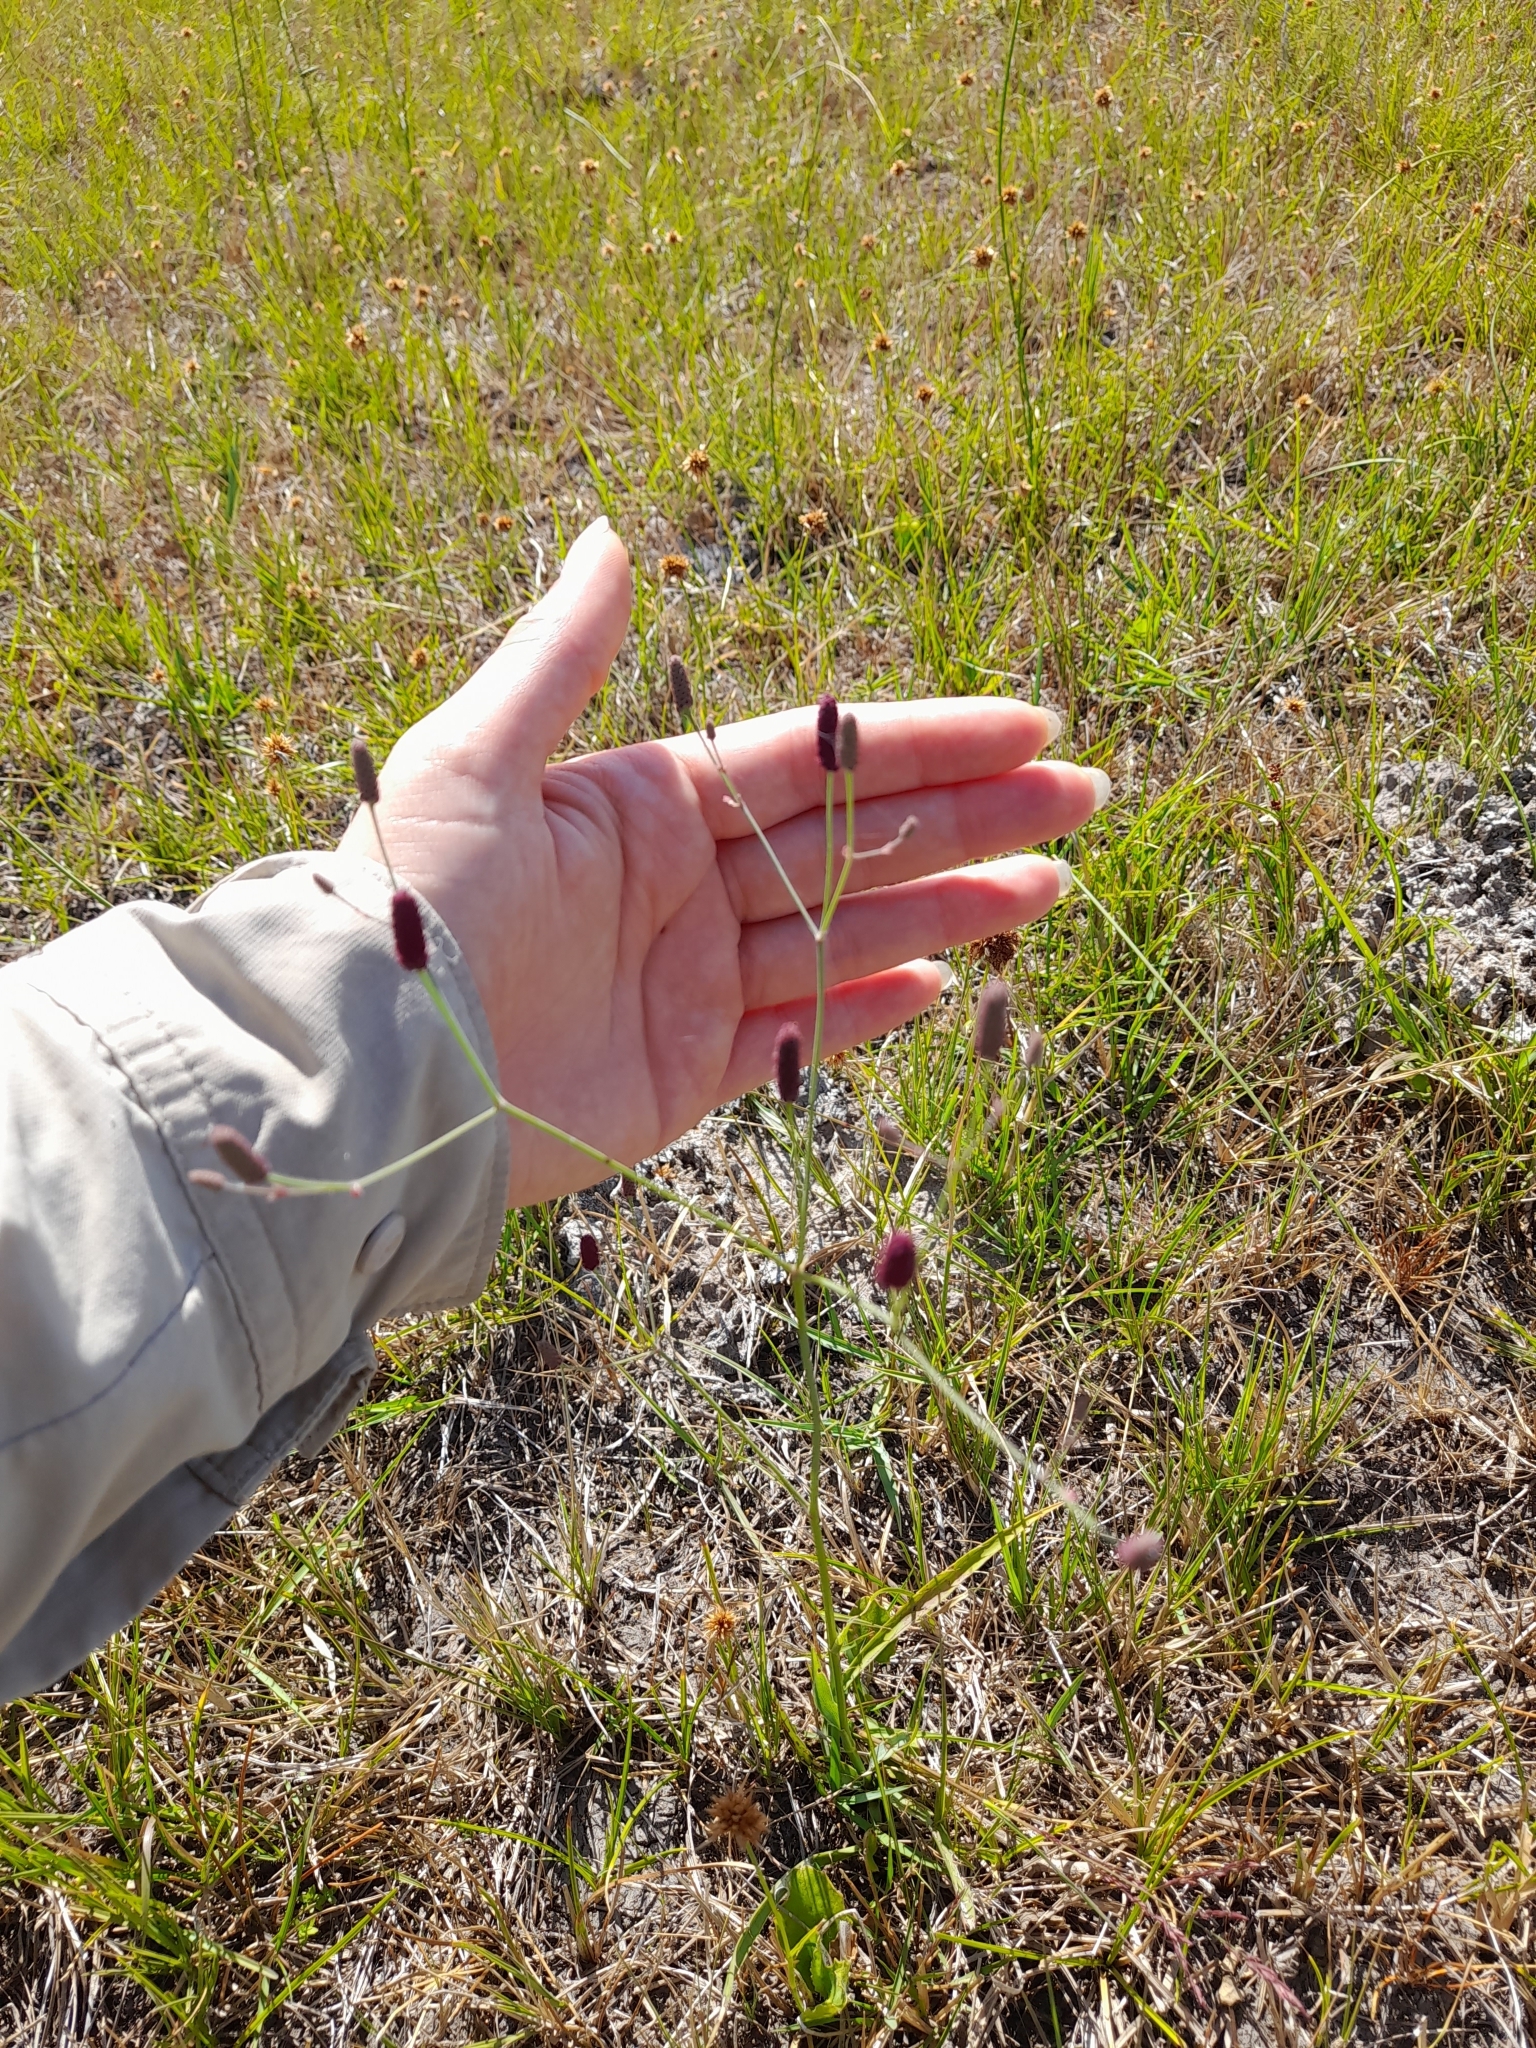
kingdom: Plantae
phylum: Tracheophyta
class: Magnoliopsida
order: Apiales
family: Apiaceae
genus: Eryngium
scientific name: Eryngium ebracteatum
